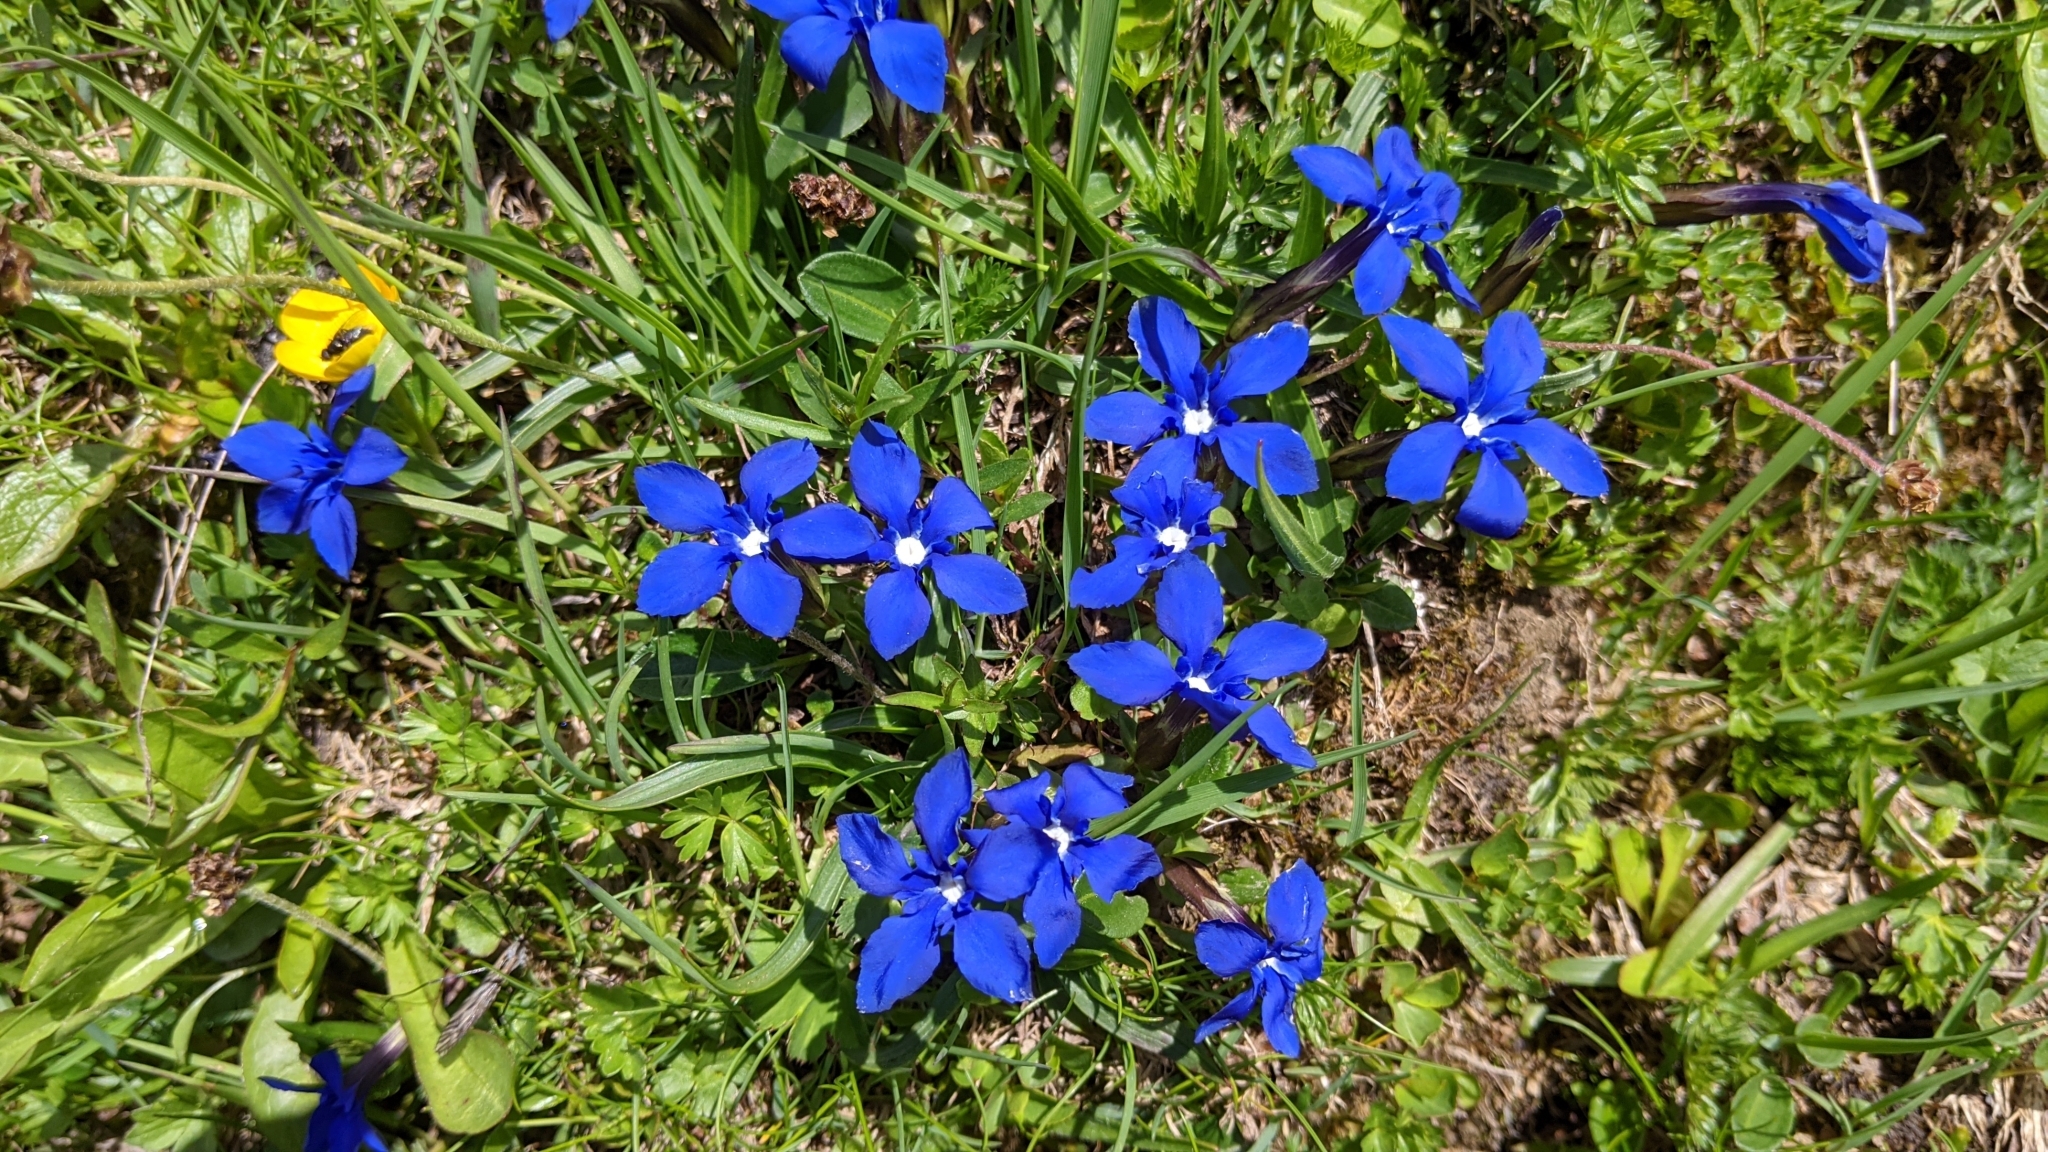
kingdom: Plantae
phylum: Tracheophyta
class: Magnoliopsida
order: Gentianales
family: Gentianaceae
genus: Gentiana
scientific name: Gentiana verna
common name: Spring gentian
